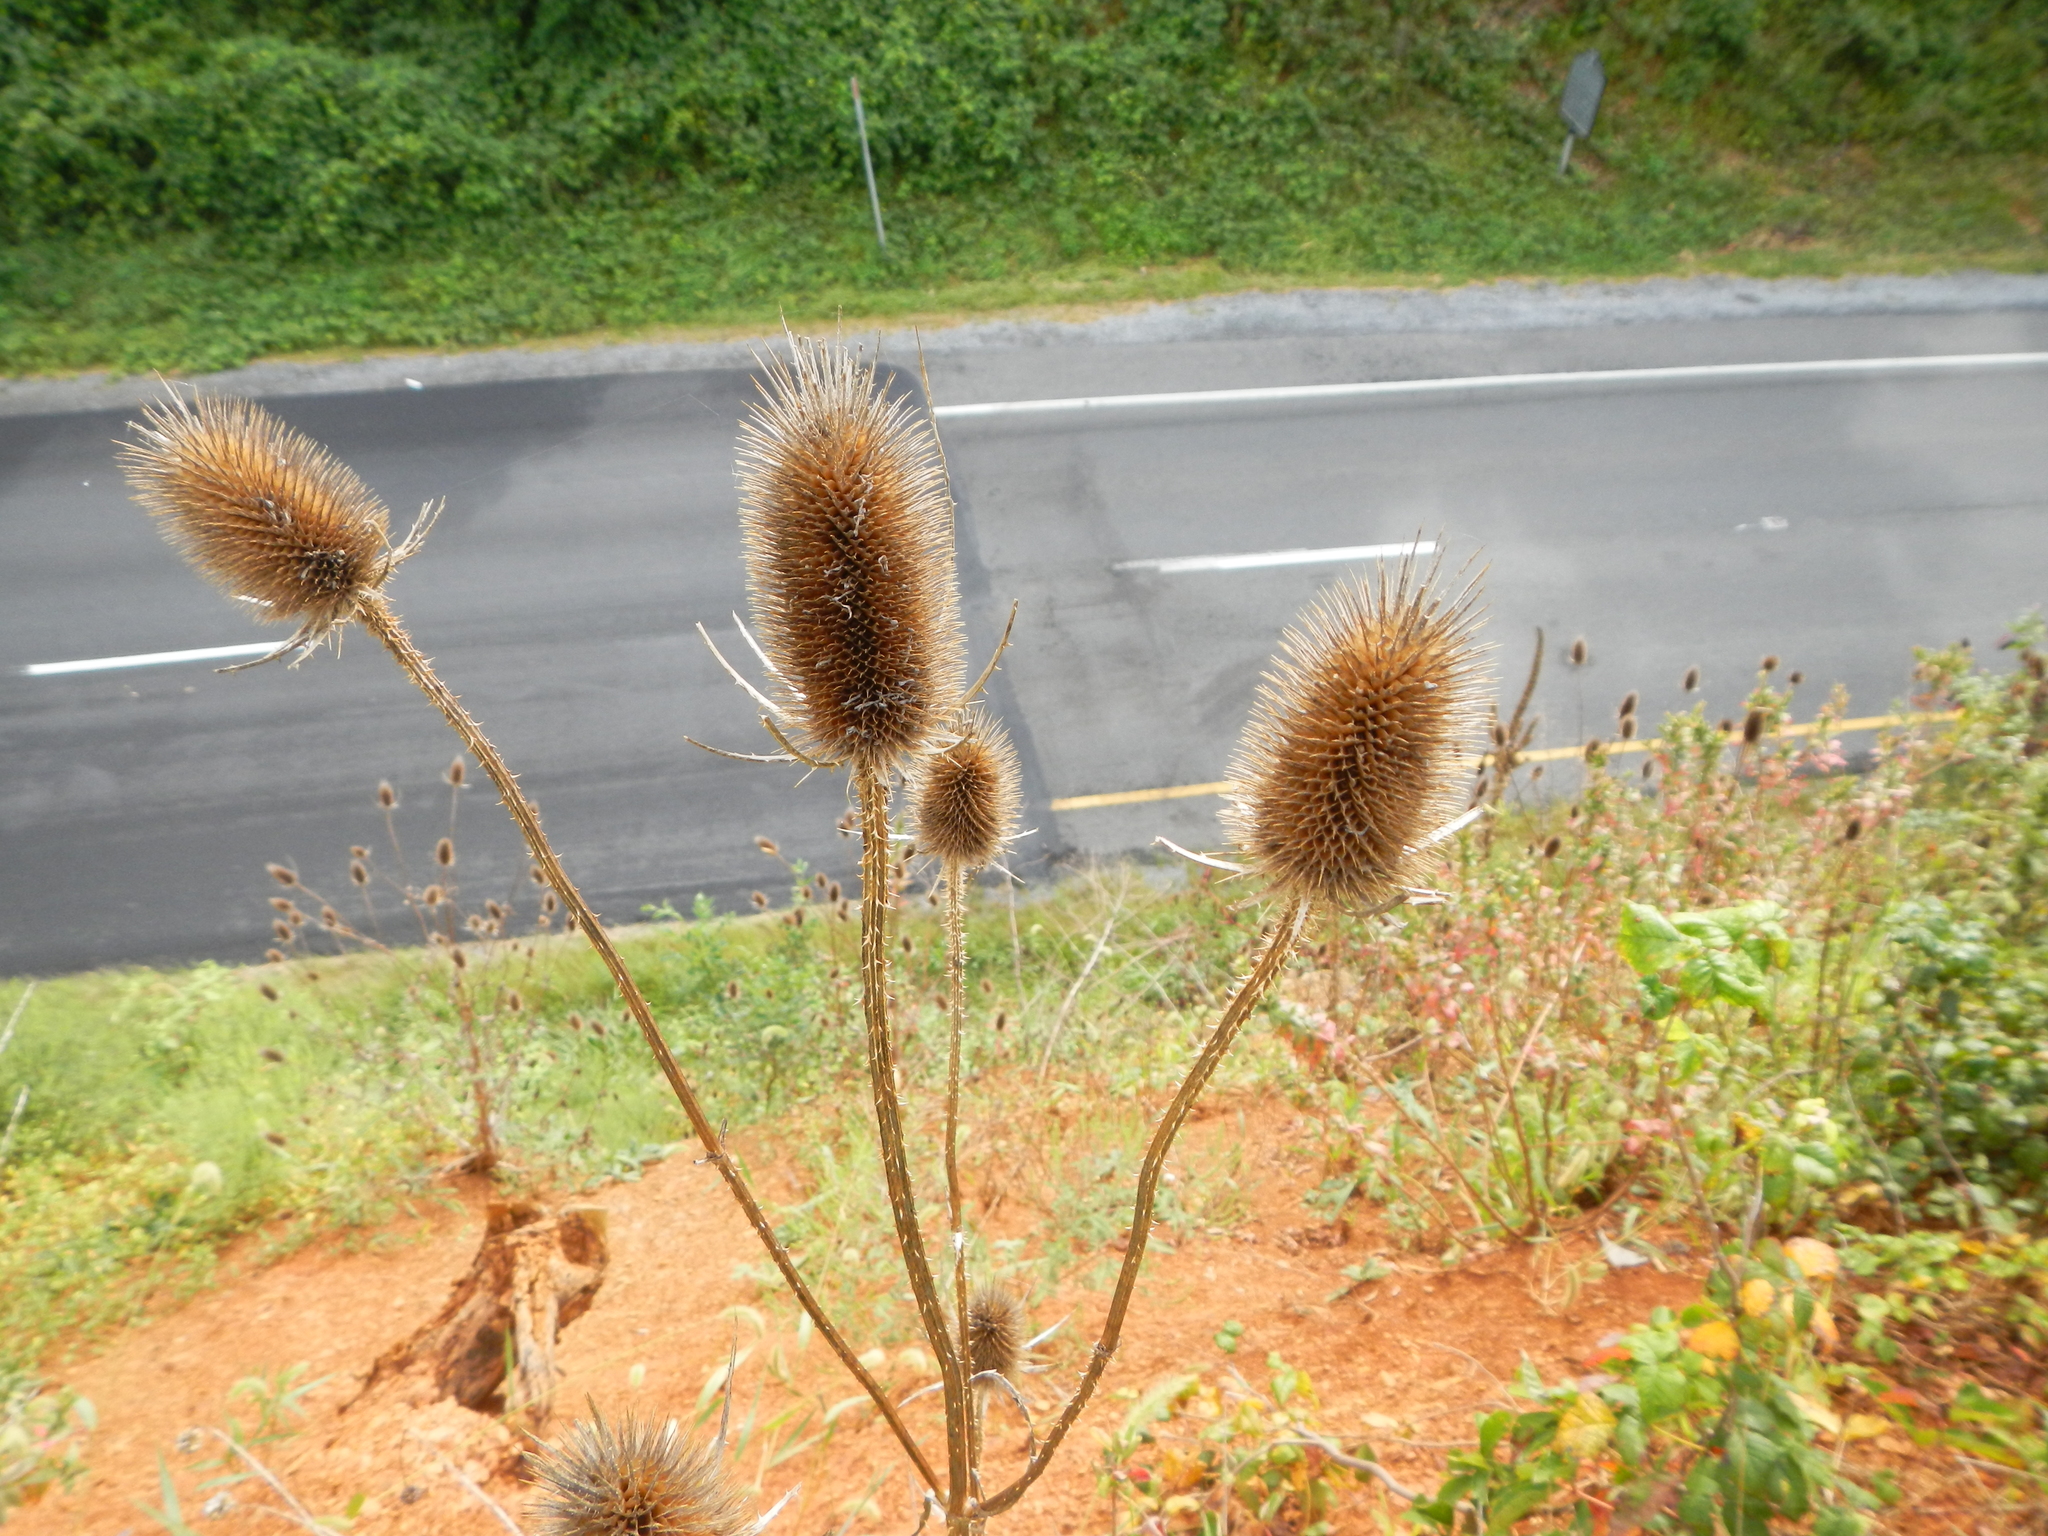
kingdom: Plantae
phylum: Tracheophyta
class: Magnoliopsida
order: Dipsacales
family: Caprifoliaceae
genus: Dipsacus
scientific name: Dipsacus fullonum
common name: Teasel
